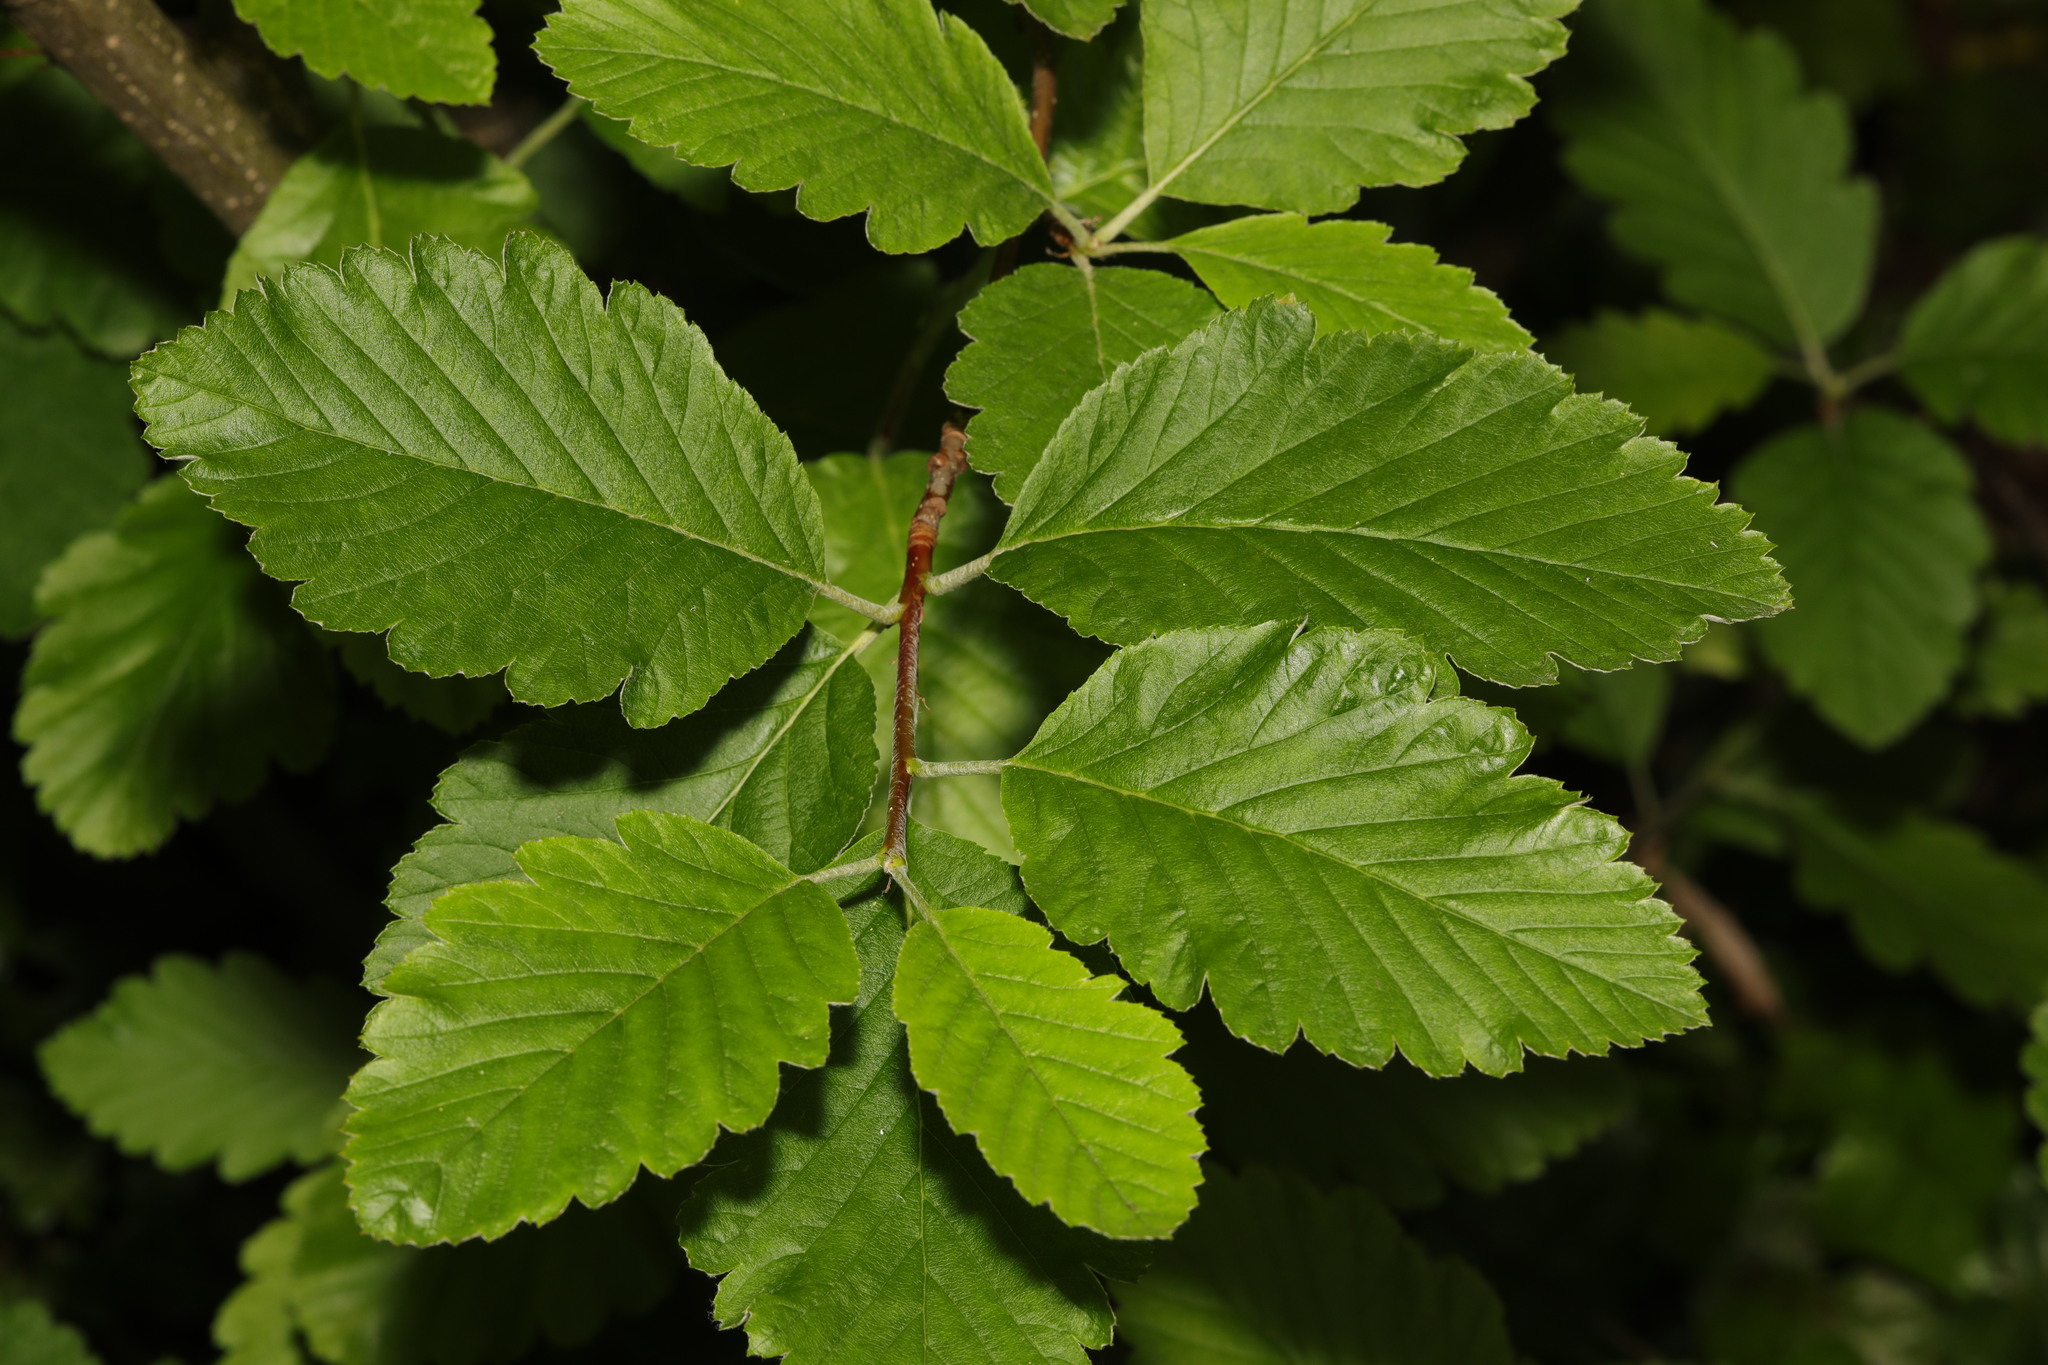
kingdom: Plantae
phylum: Tracheophyta
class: Magnoliopsida
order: Rosales
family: Rosaceae
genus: Hedlundia
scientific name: Hedlundia mougeotii
